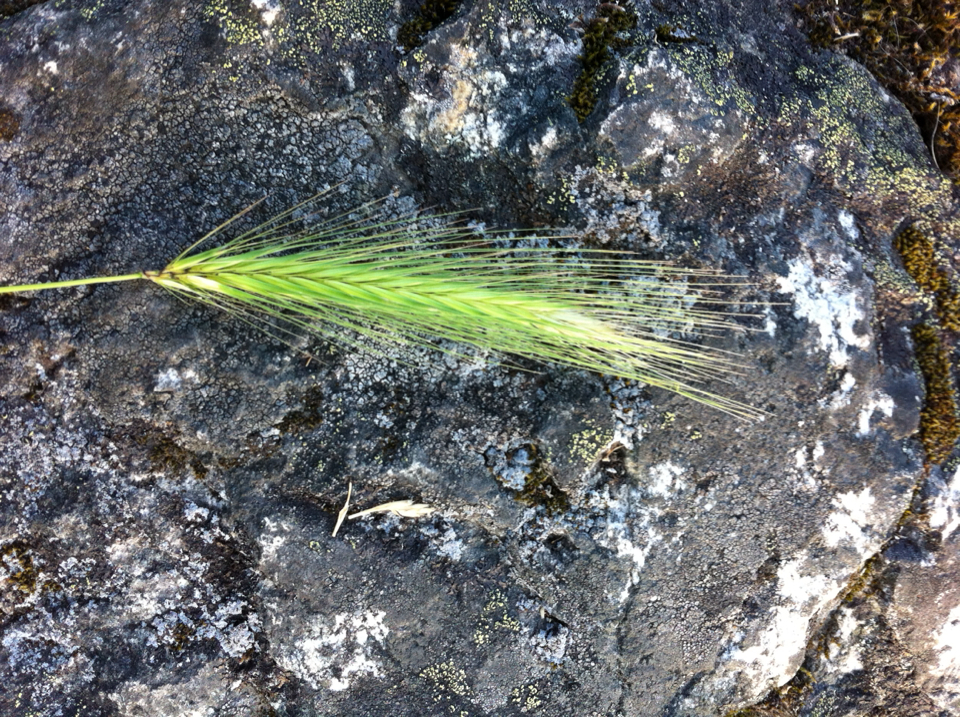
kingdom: Plantae
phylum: Tracheophyta
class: Liliopsida
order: Poales
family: Poaceae
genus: Hordeum
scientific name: Hordeum murinum
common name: Wall barley
